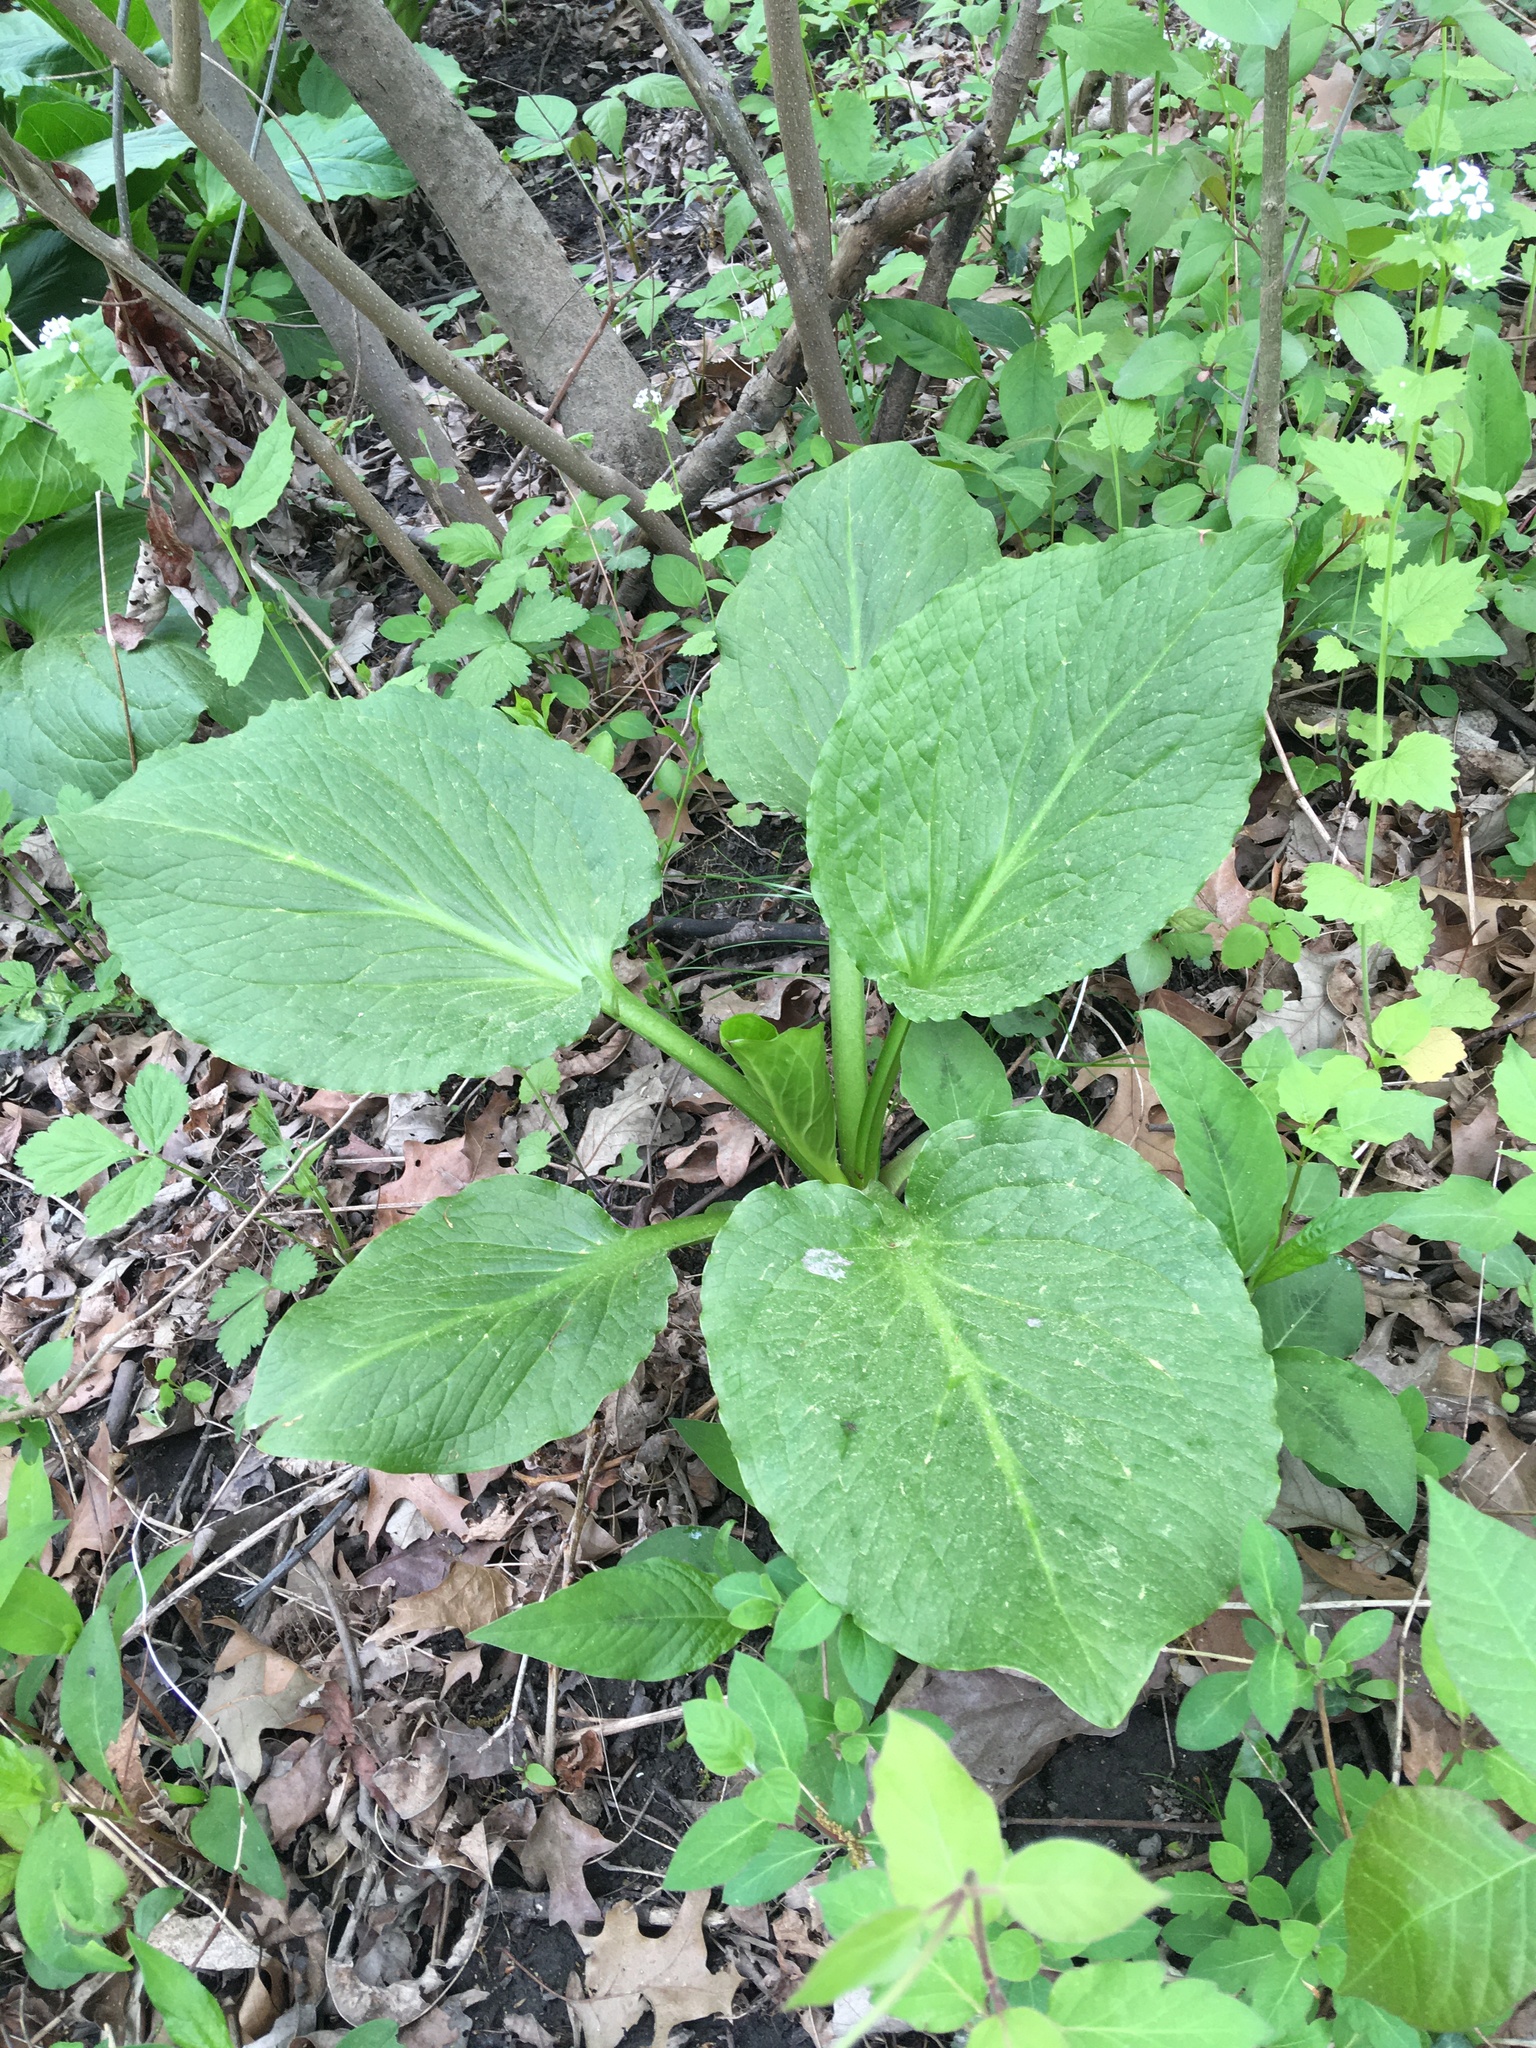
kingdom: Plantae
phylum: Tracheophyta
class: Liliopsida
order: Alismatales
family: Araceae
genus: Symplocarpus
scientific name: Symplocarpus foetidus
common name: Eastern skunk cabbage
